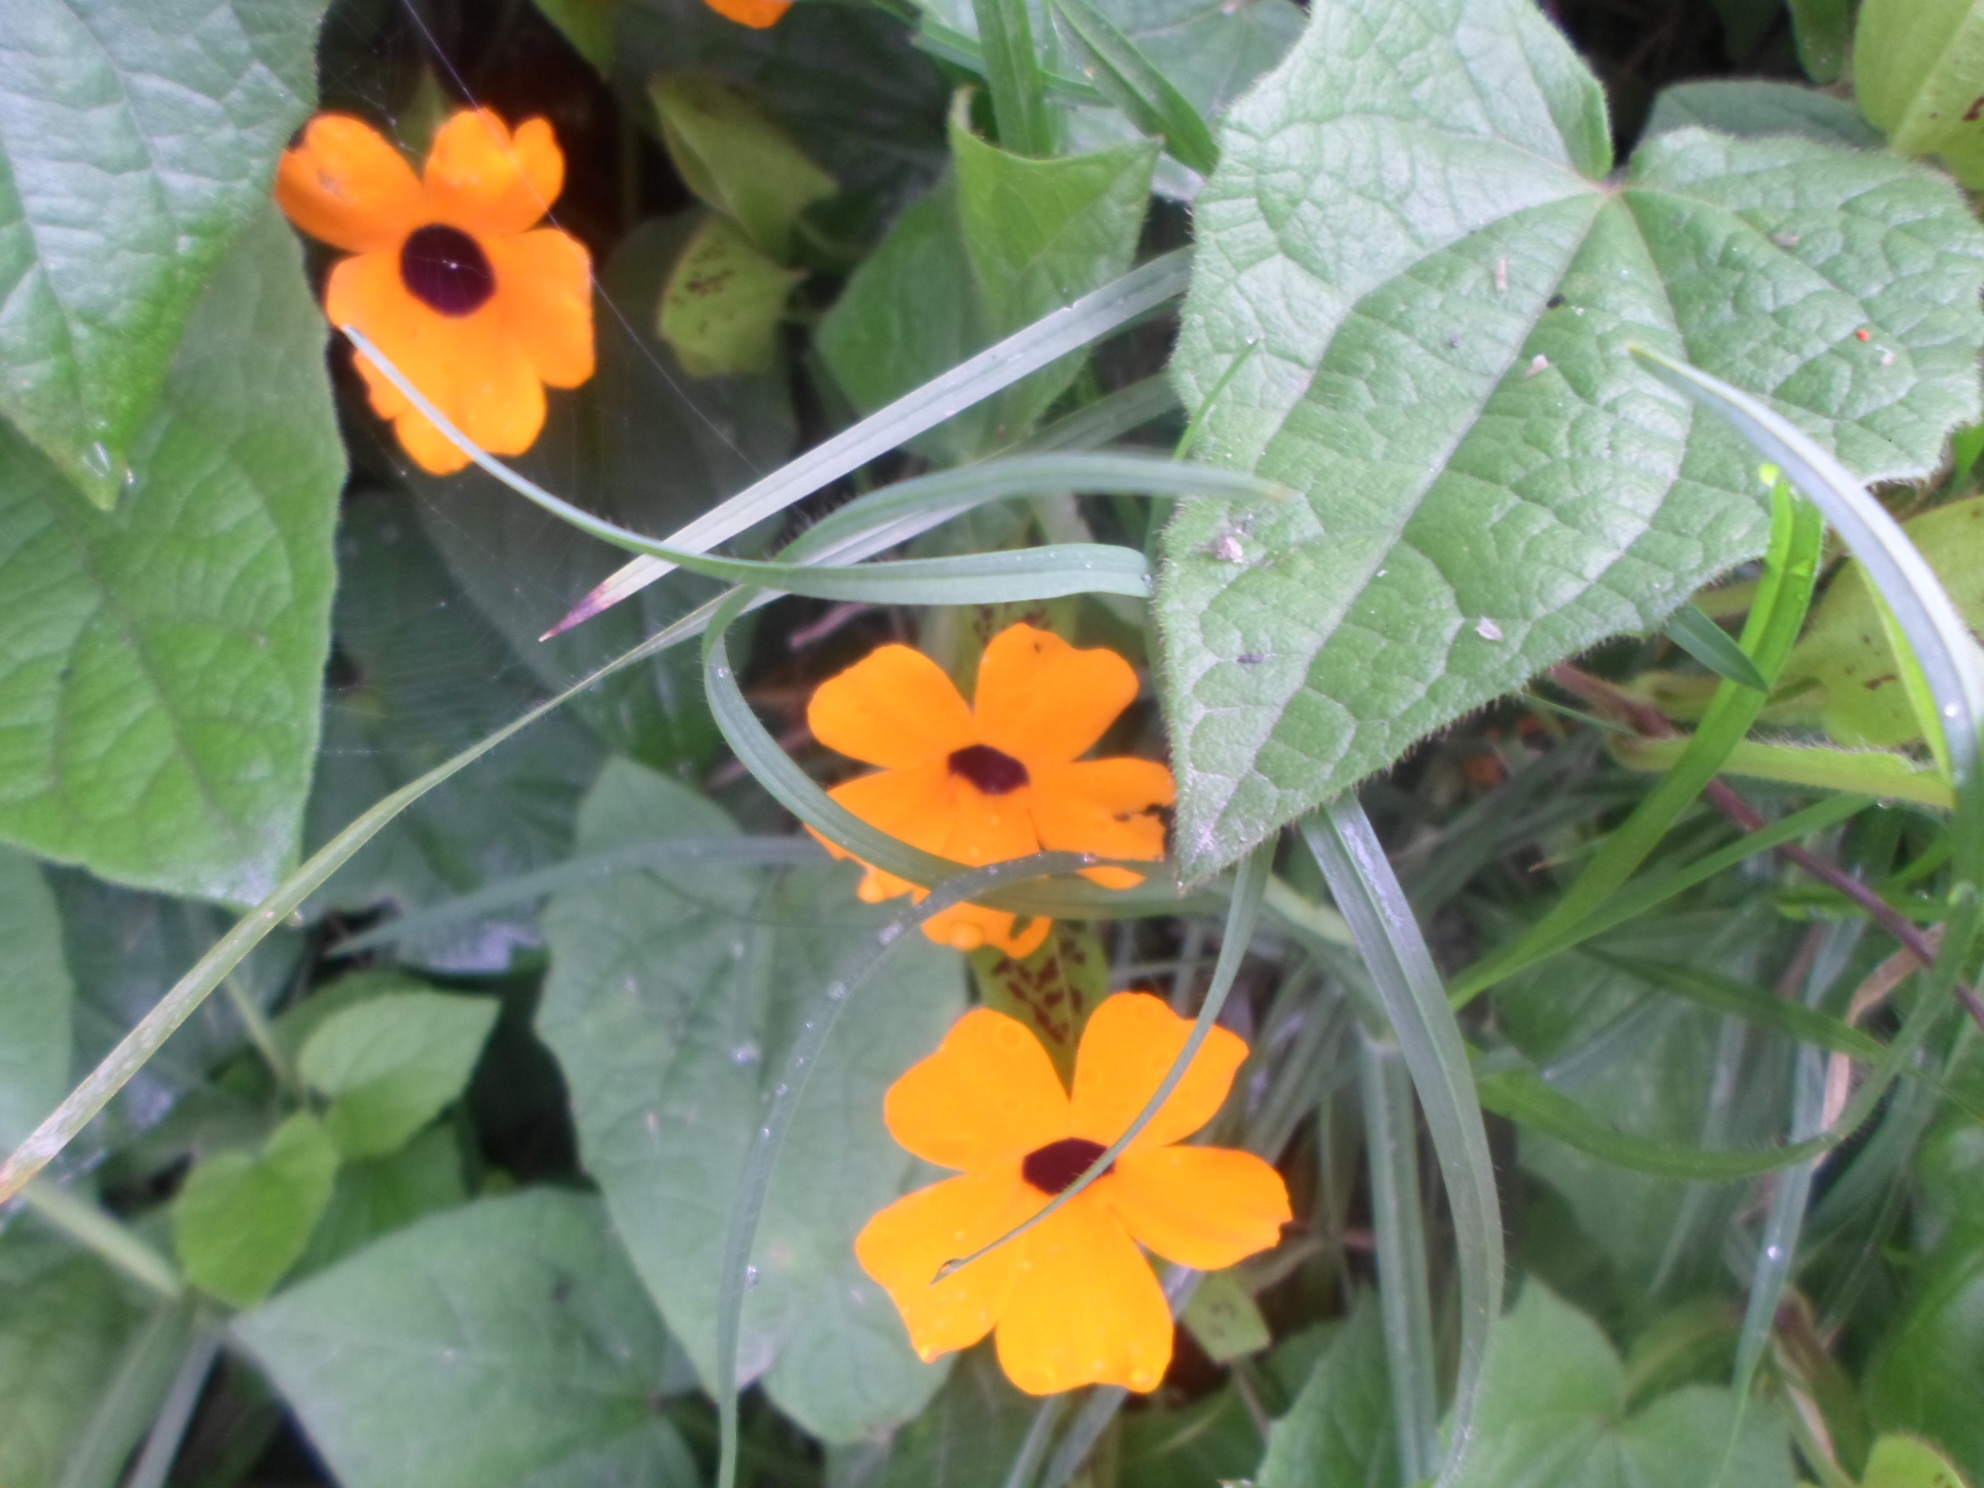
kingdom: Plantae
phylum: Tracheophyta
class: Magnoliopsida
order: Lamiales
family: Acanthaceae
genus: Thunbergia
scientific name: Thunbergia alata
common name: Blackeyed susan vine
